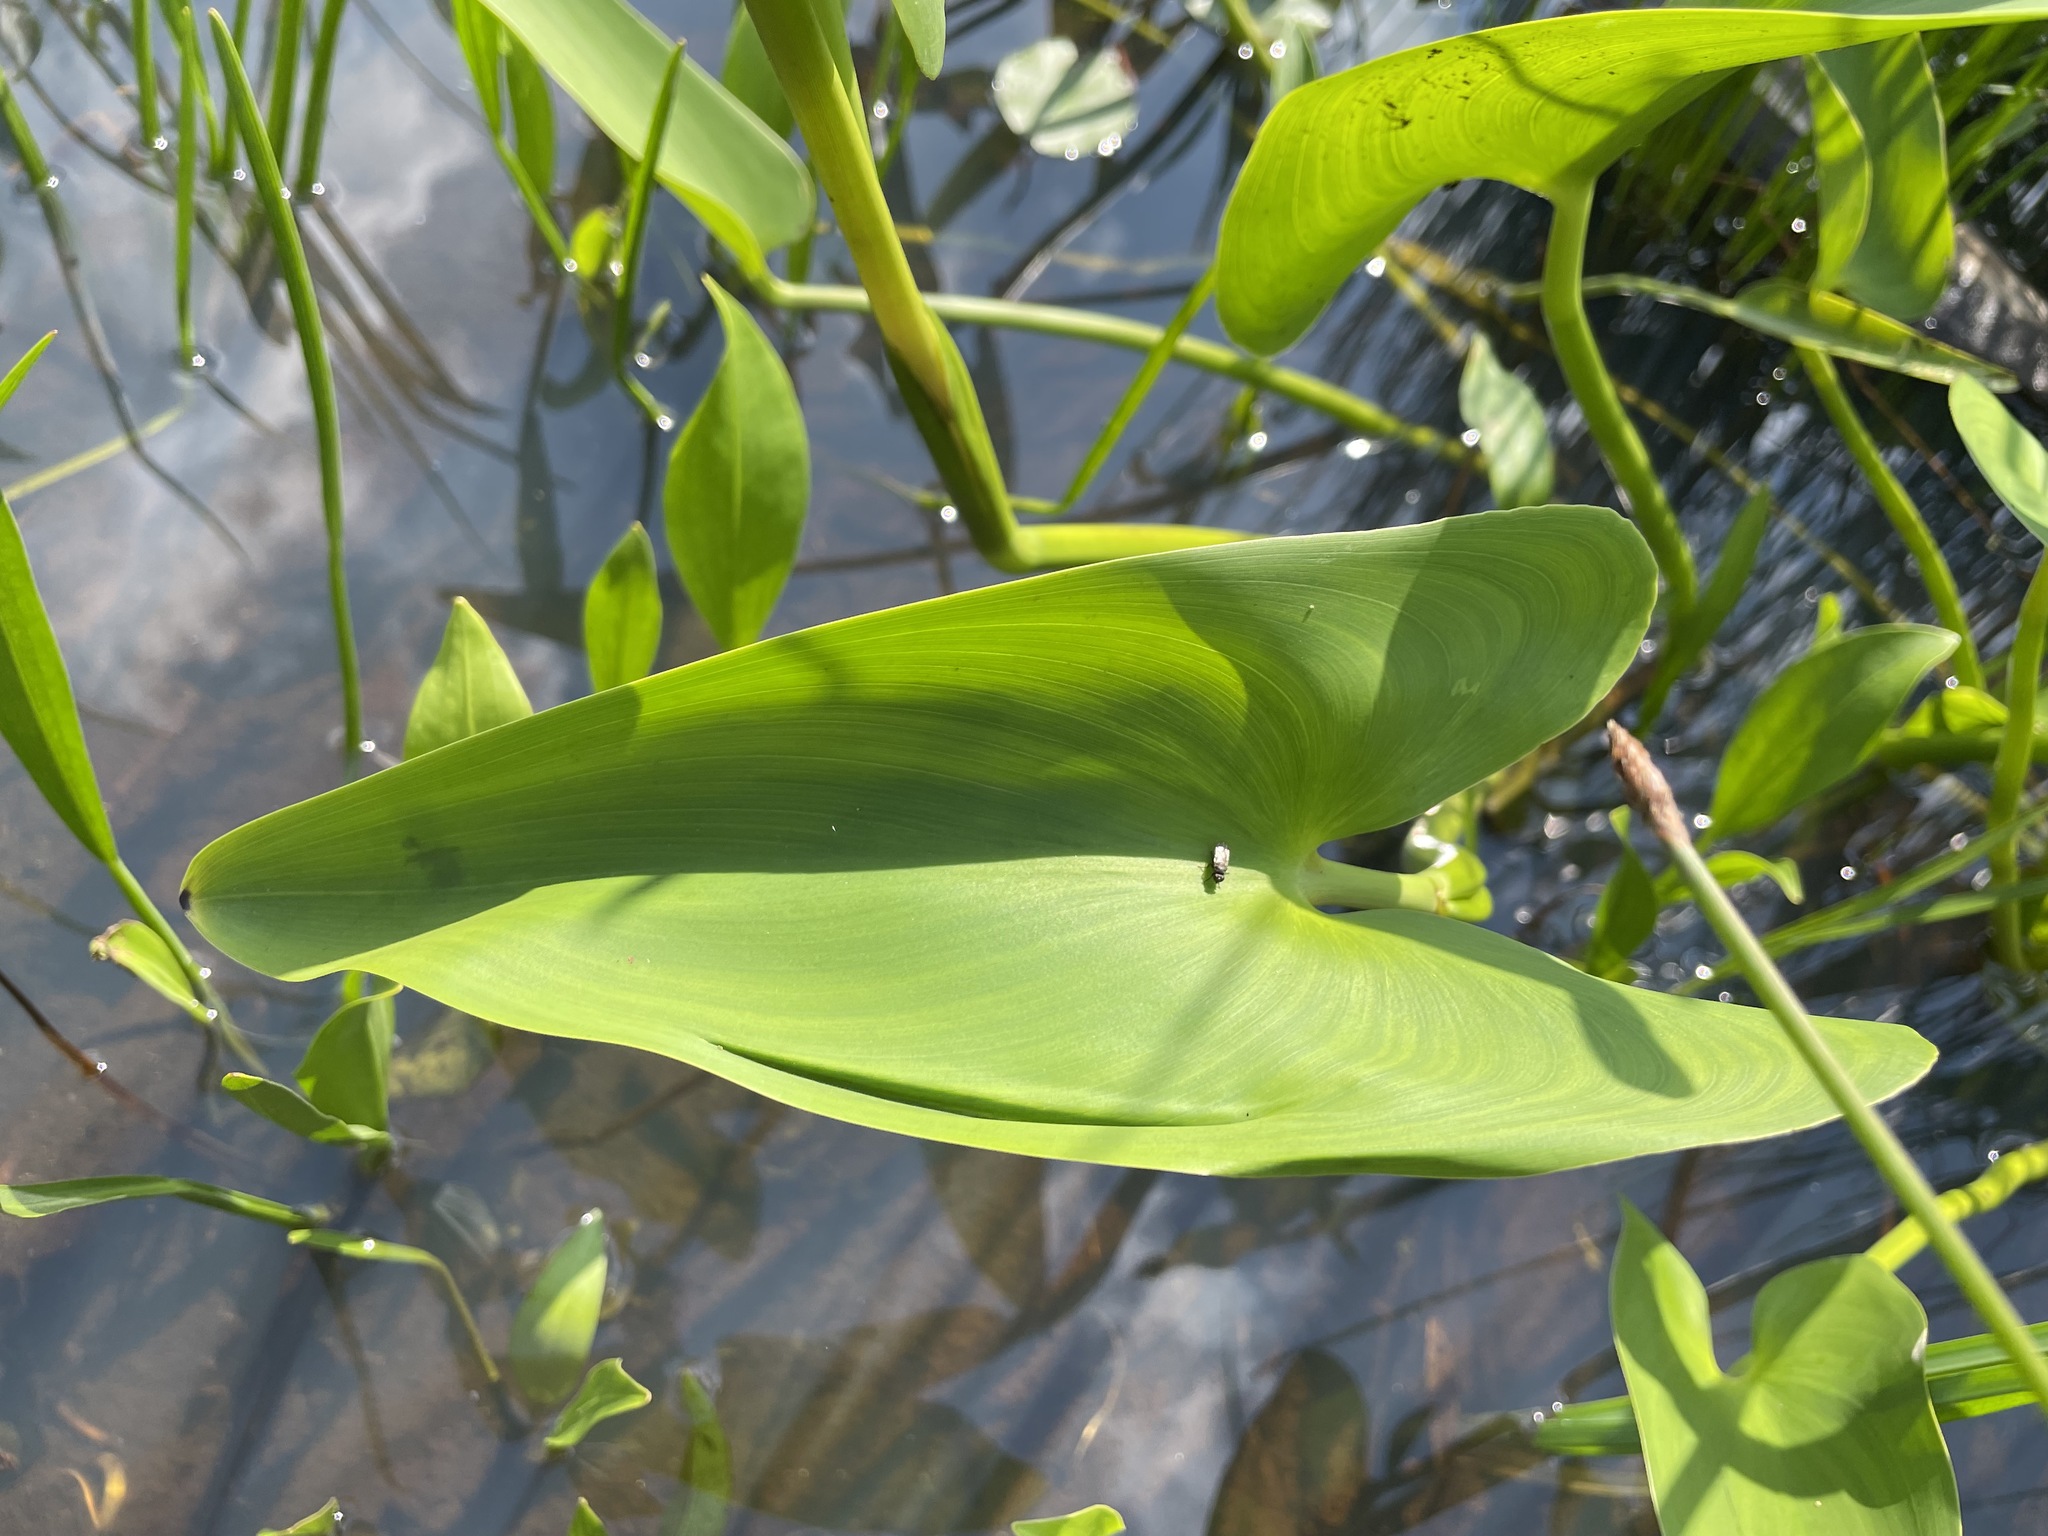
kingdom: Plantae
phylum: Tracheophyta
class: Liliopsida
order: Commelinales
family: Pontederiaceae
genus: Pontederia
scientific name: Pontederia cordata
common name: Pickerelweed
